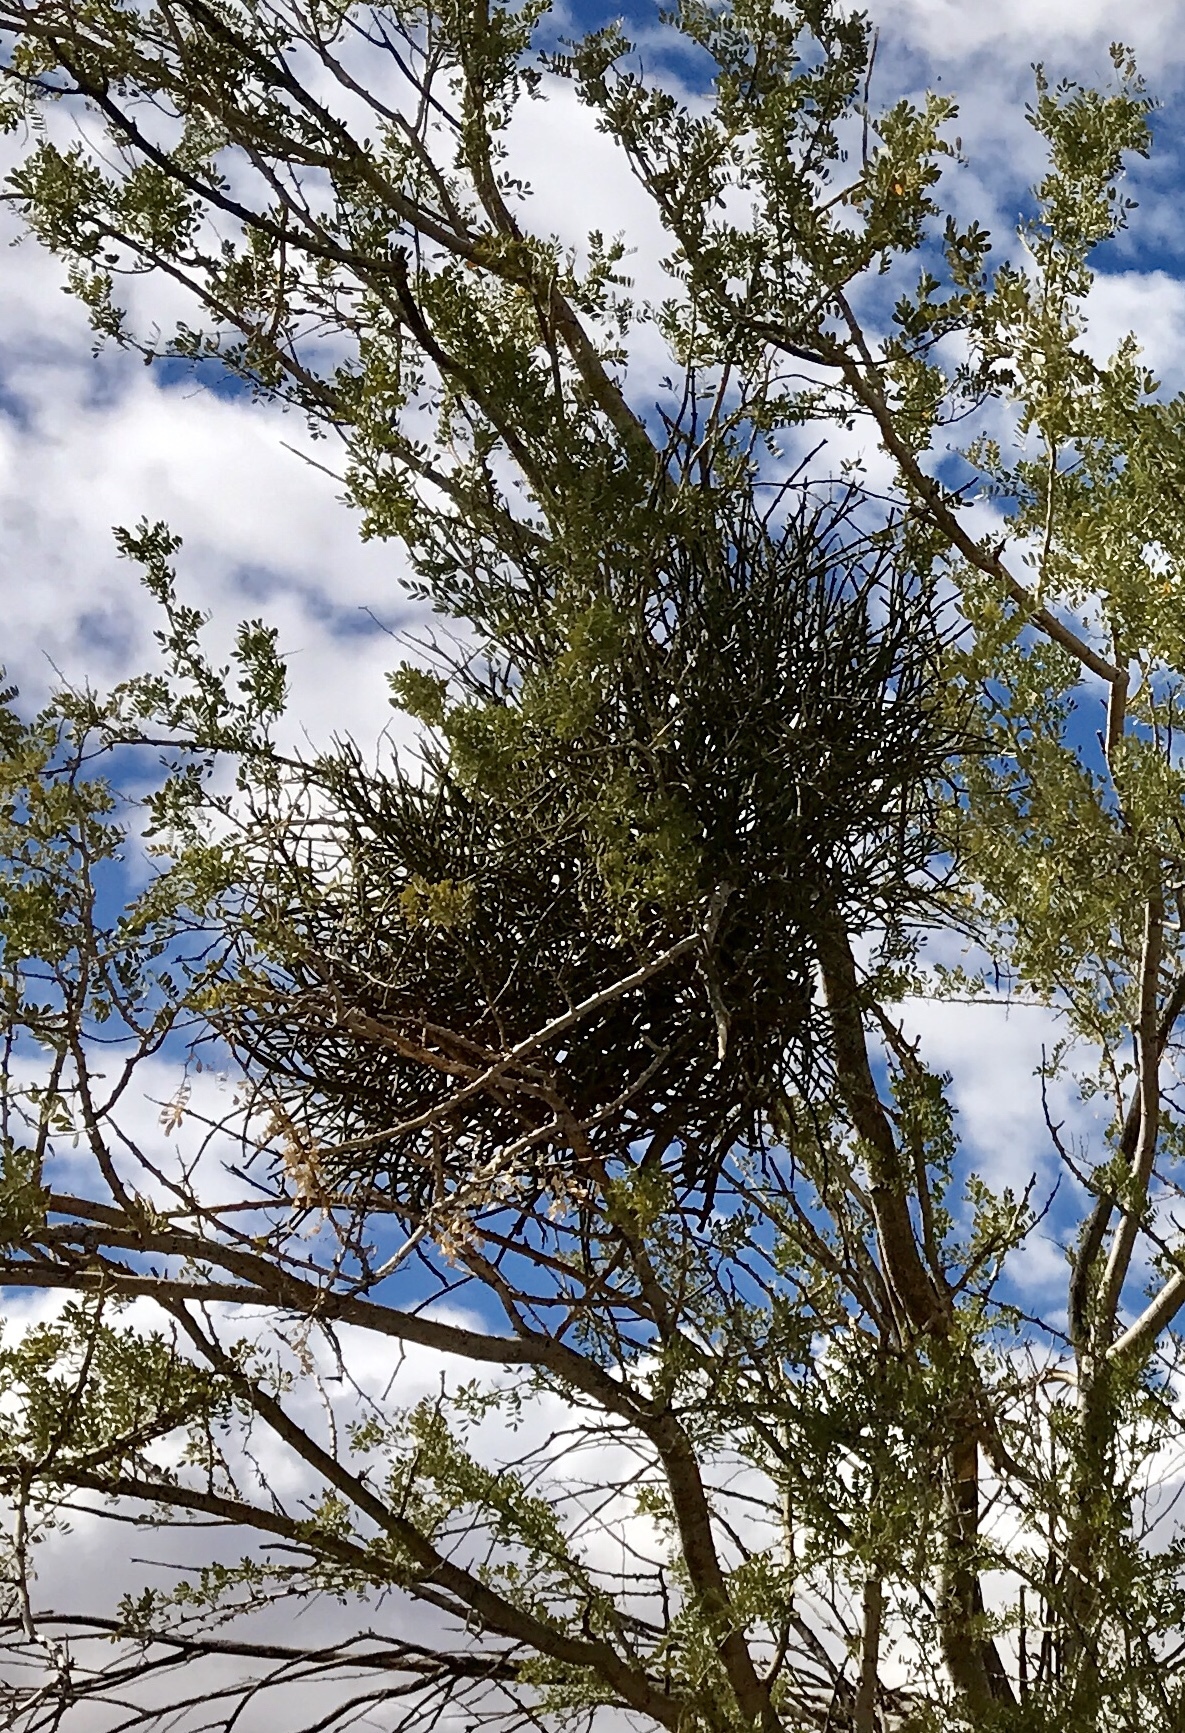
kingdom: Plantae
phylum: Tracheophyta
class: Magnoliopsida
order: Santalales
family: Viscaceae
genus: Phoradendron
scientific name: Phoradendron californicum
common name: Acacia mistletoe
